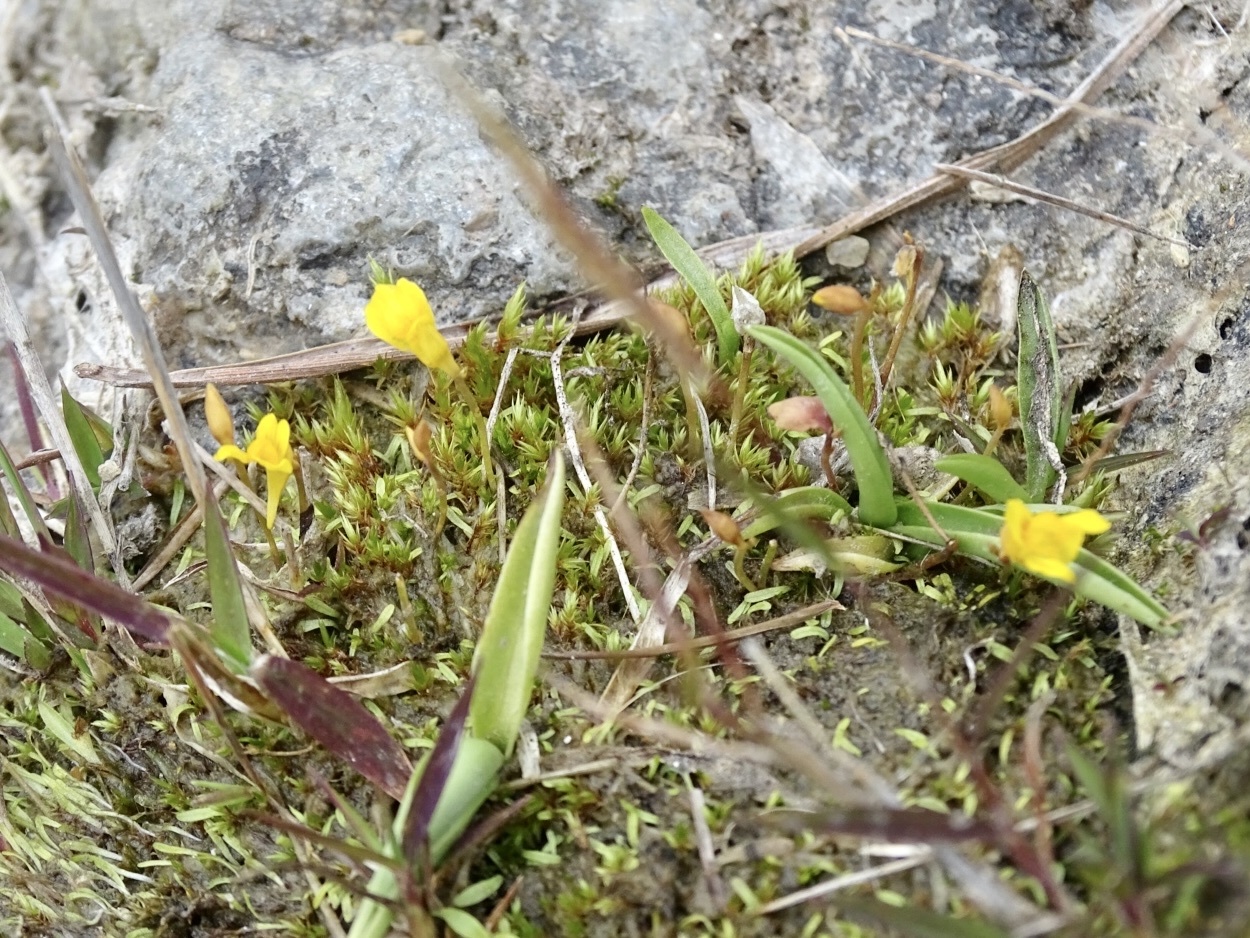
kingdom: Plantae
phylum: Tracheophyta
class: Magnoliopsida
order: Lamiales
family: Lentibulariaceae
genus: Utricularia
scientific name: Utricularia bifida
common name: Bifid bladderwort
